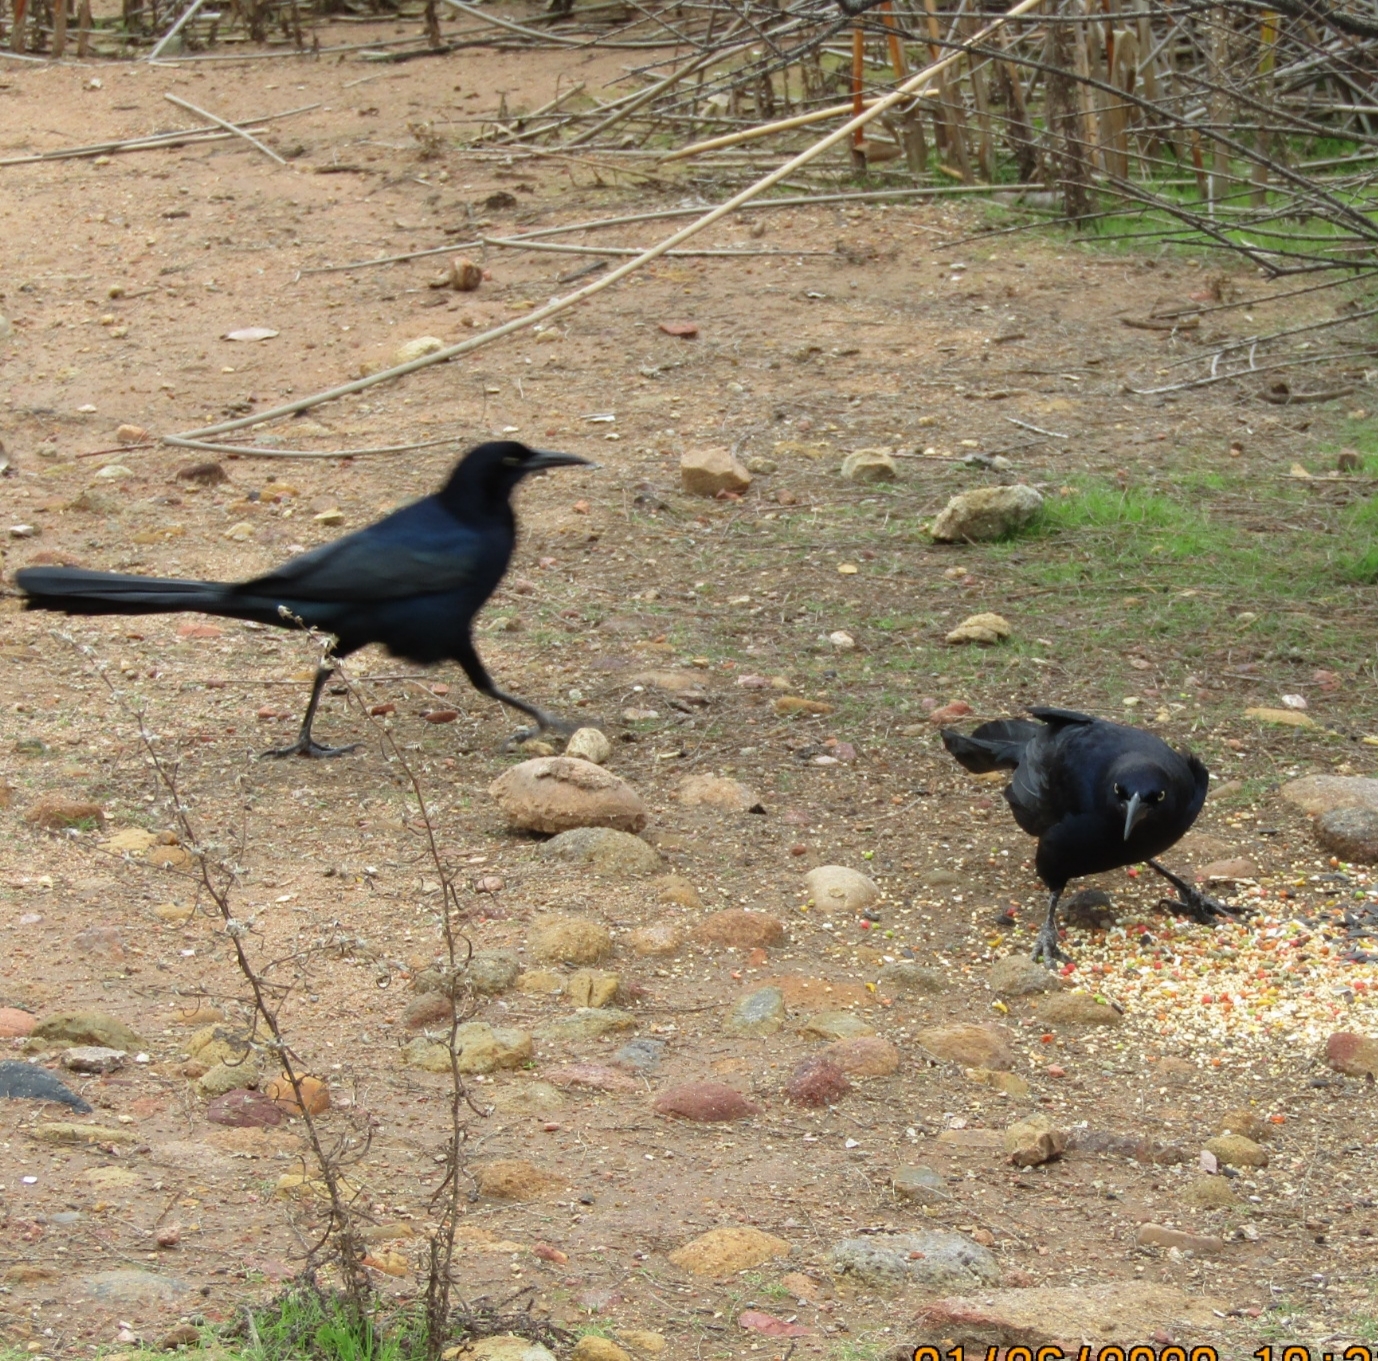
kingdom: Animalia
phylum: Chordata
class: Aves
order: Passeriformes
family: Icteridae
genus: Quiscalus
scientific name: Quiscalus mexicanus
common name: Great-tailed grackle
